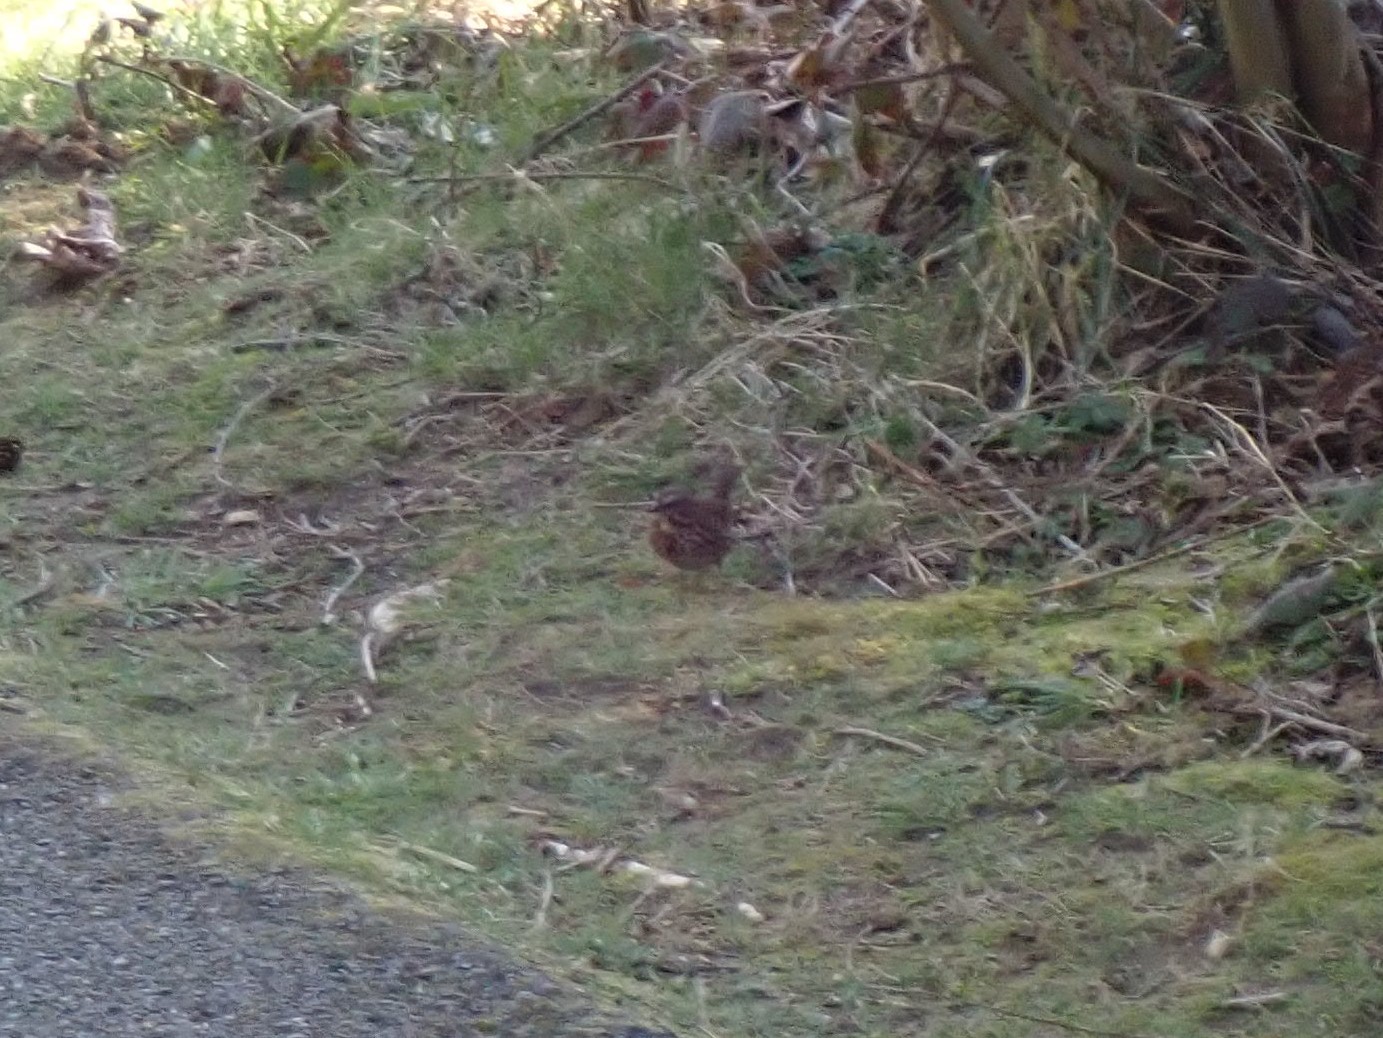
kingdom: Animalia
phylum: Chordata
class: Aves
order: Passeriformes
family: Passerellidae
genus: Melospiza
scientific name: Melospiza melodia
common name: Song sparrow
